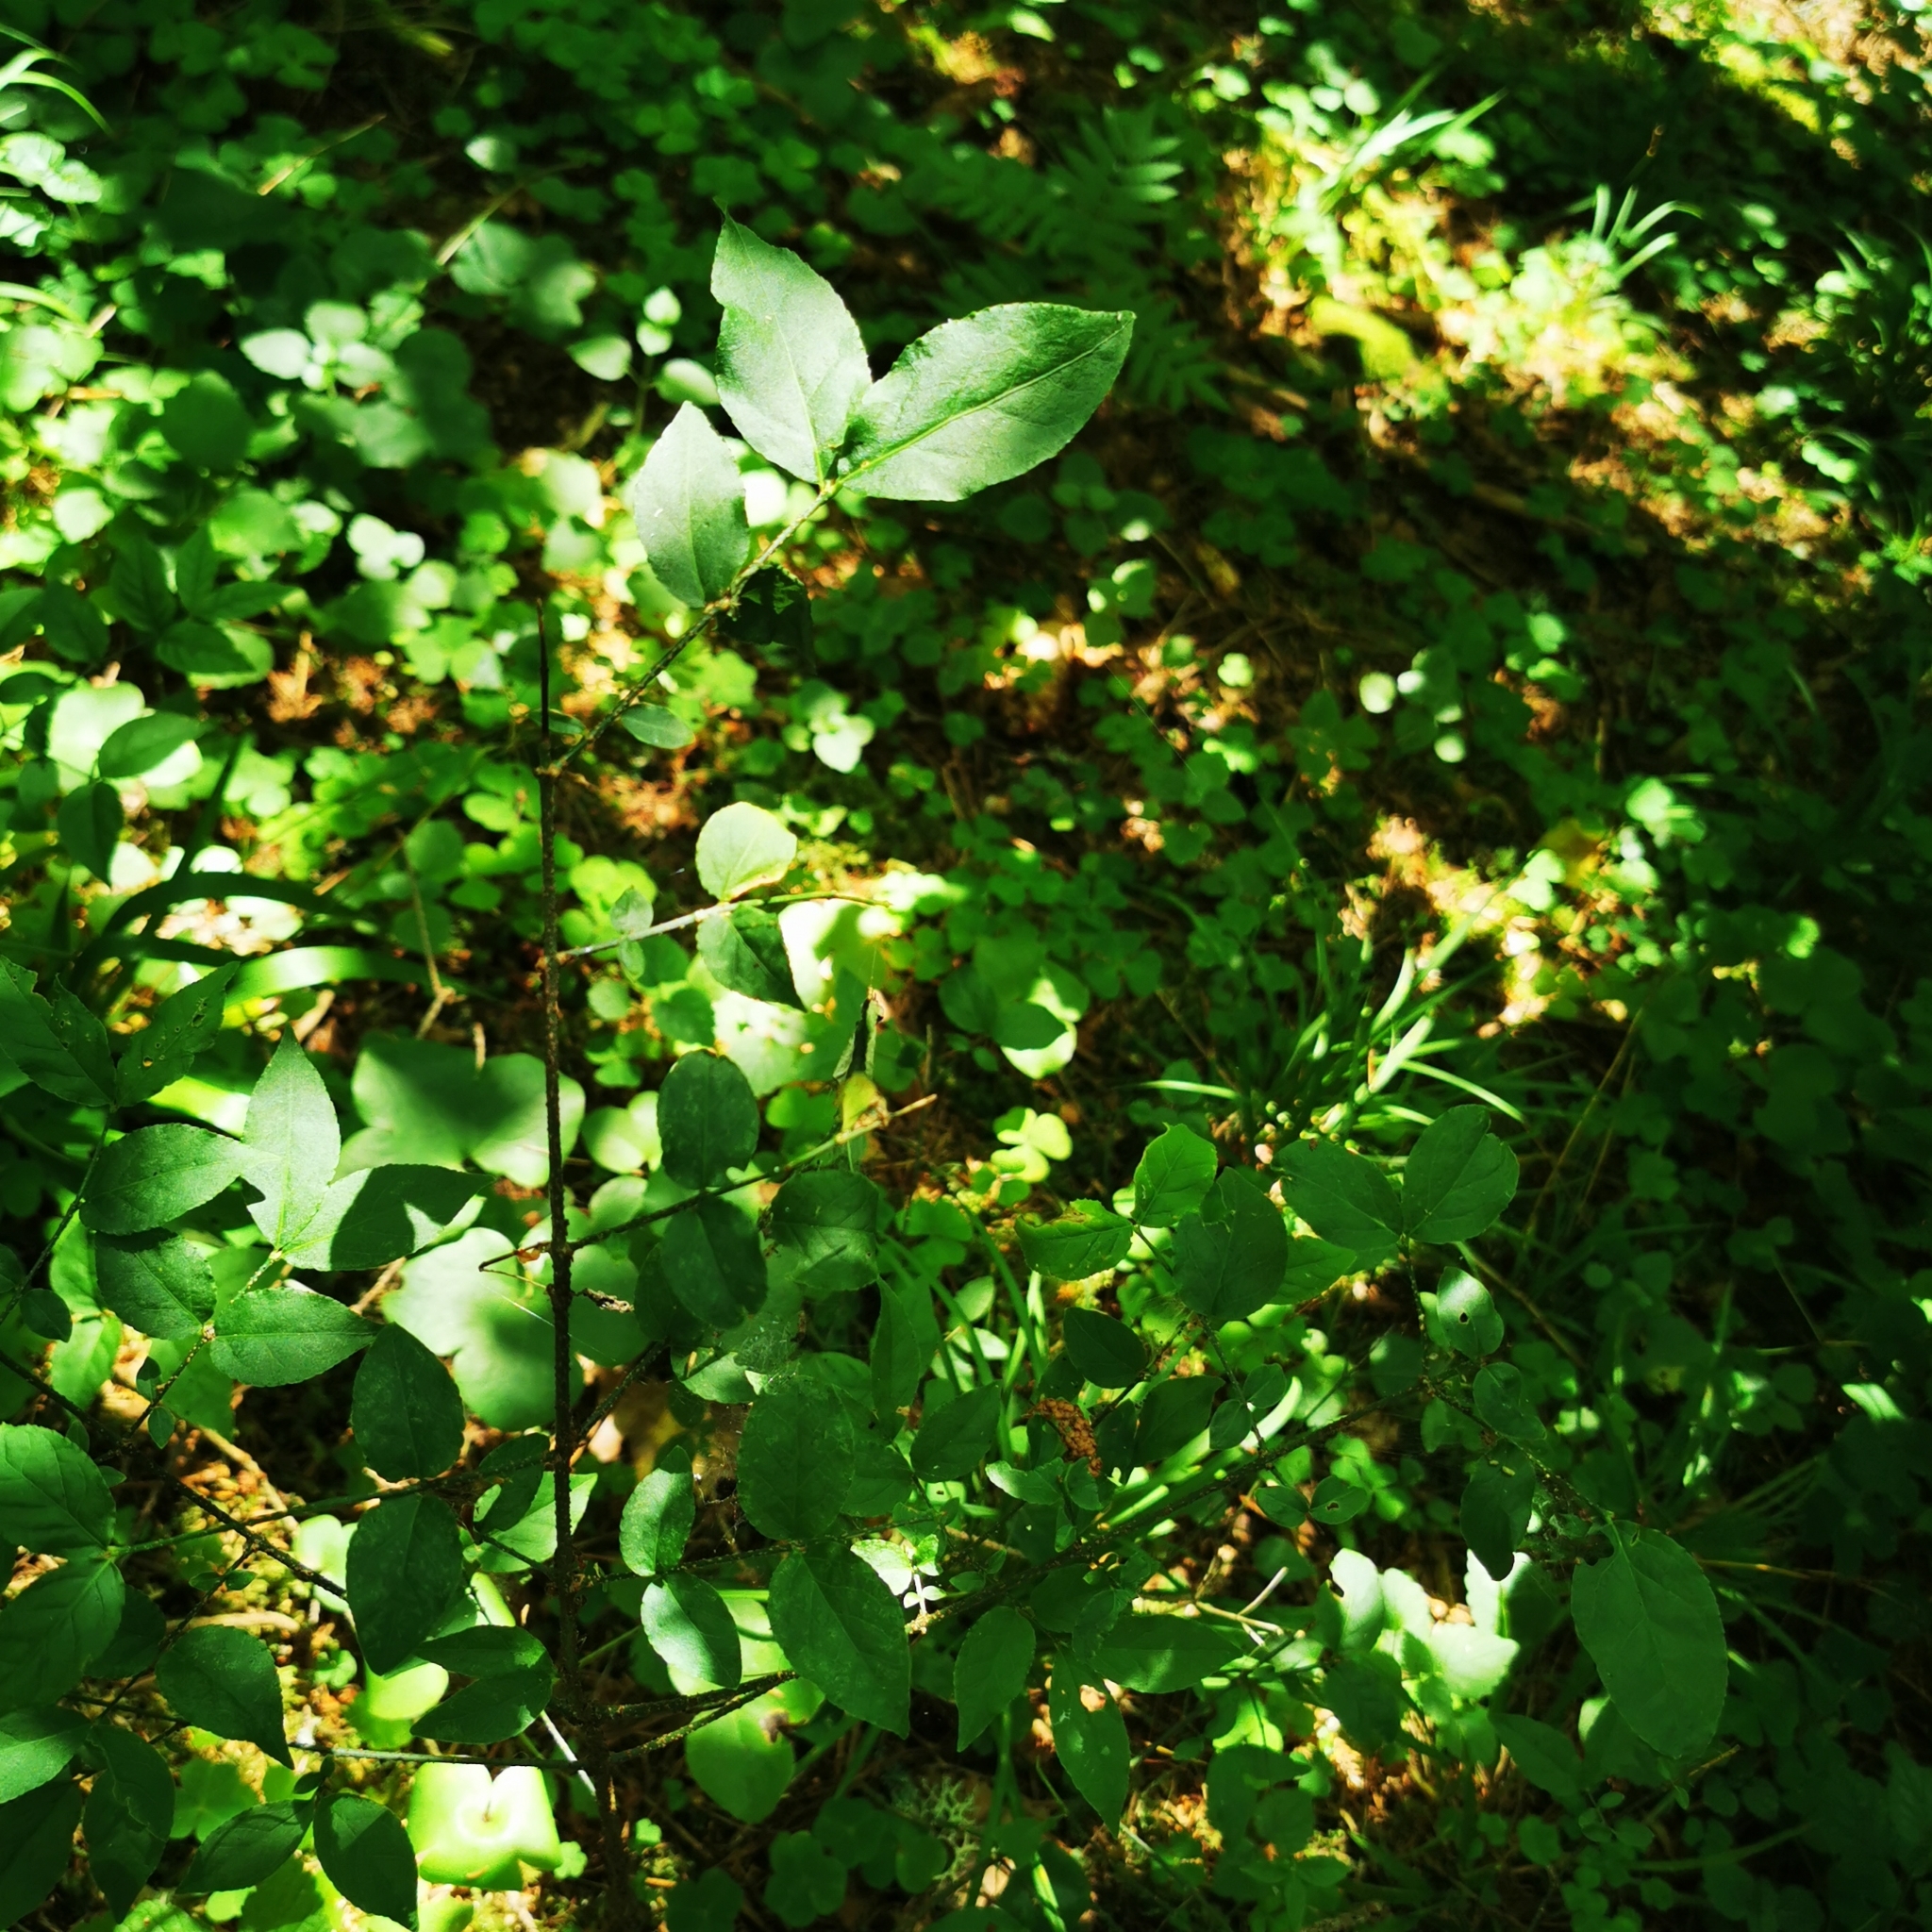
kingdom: Plantae
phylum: Tracheophyta
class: Magnoliopsida
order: Celastrales
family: Celastraceae
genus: Euonymus
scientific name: Euonymus verrucosus
